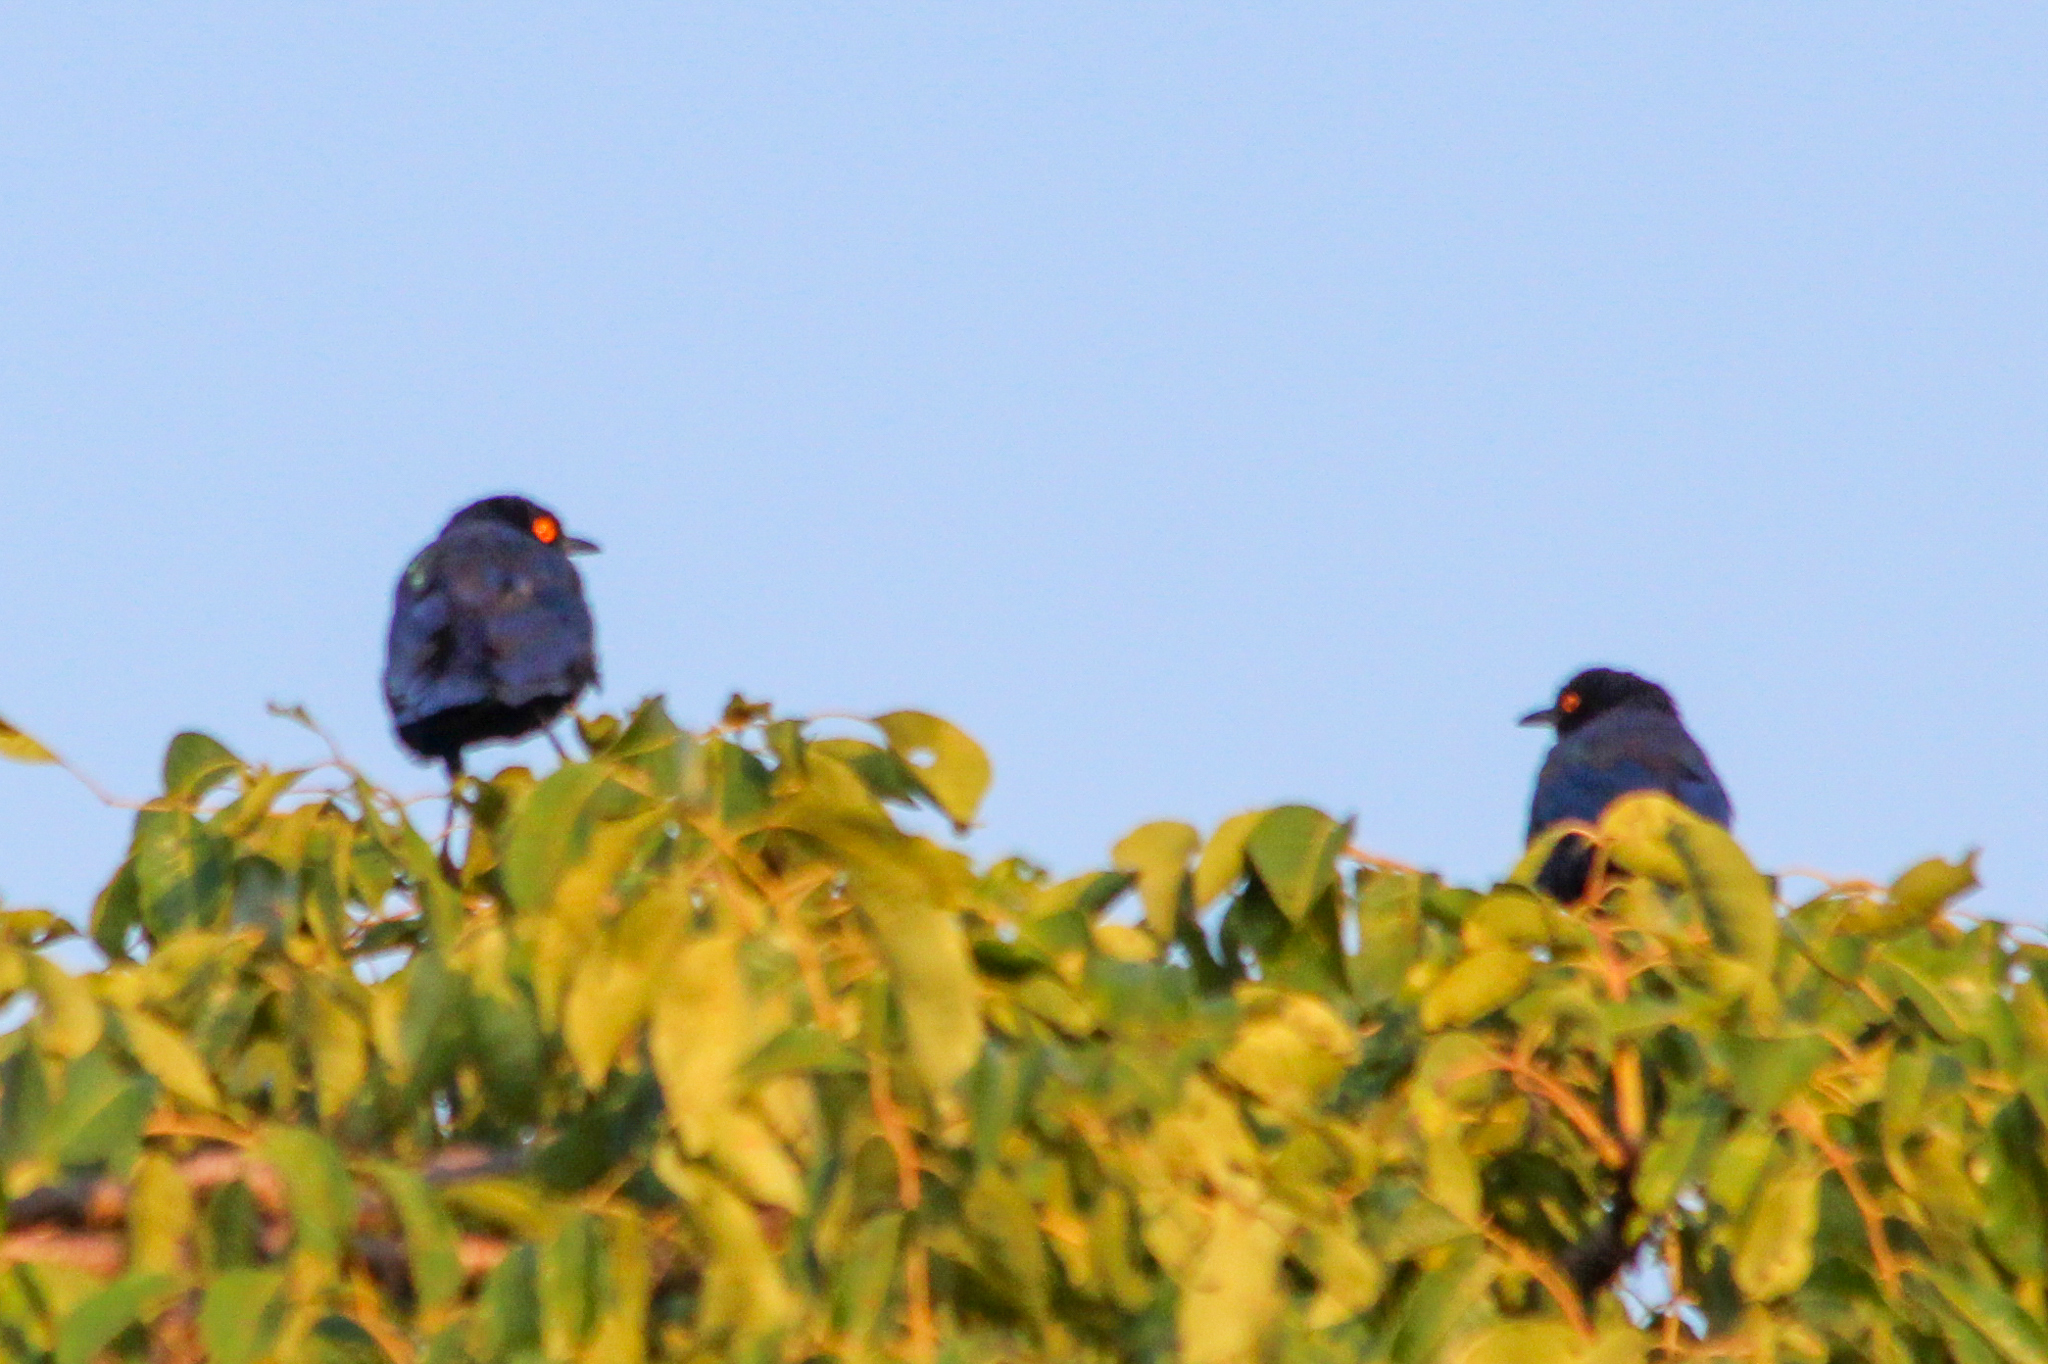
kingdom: Animalia
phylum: Chordata
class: Aves
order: Passeriformes
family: Sturnidae
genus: Lamprotornis
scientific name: Lamprotornis nitens
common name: Cape starling
